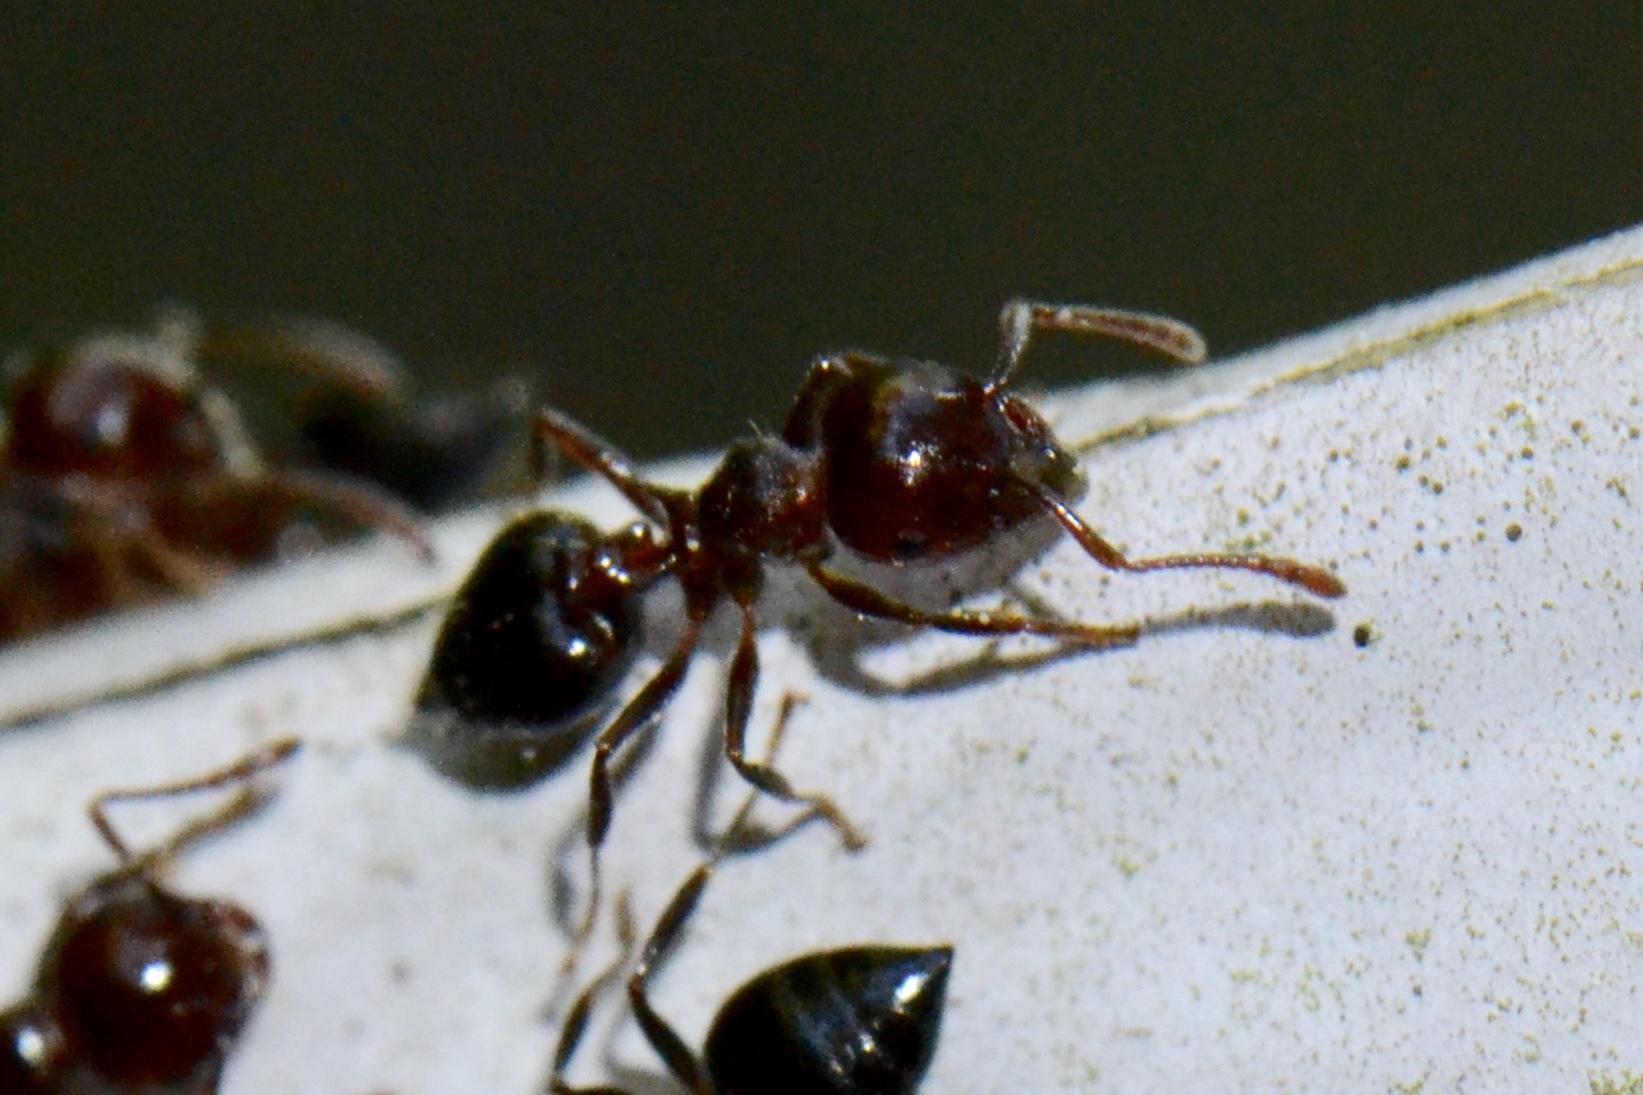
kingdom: Animalia
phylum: Arthropoda
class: Insecta
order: Hymenoptera
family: Formicidae
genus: Crematogaster
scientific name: Crematogaster laeviuscula
